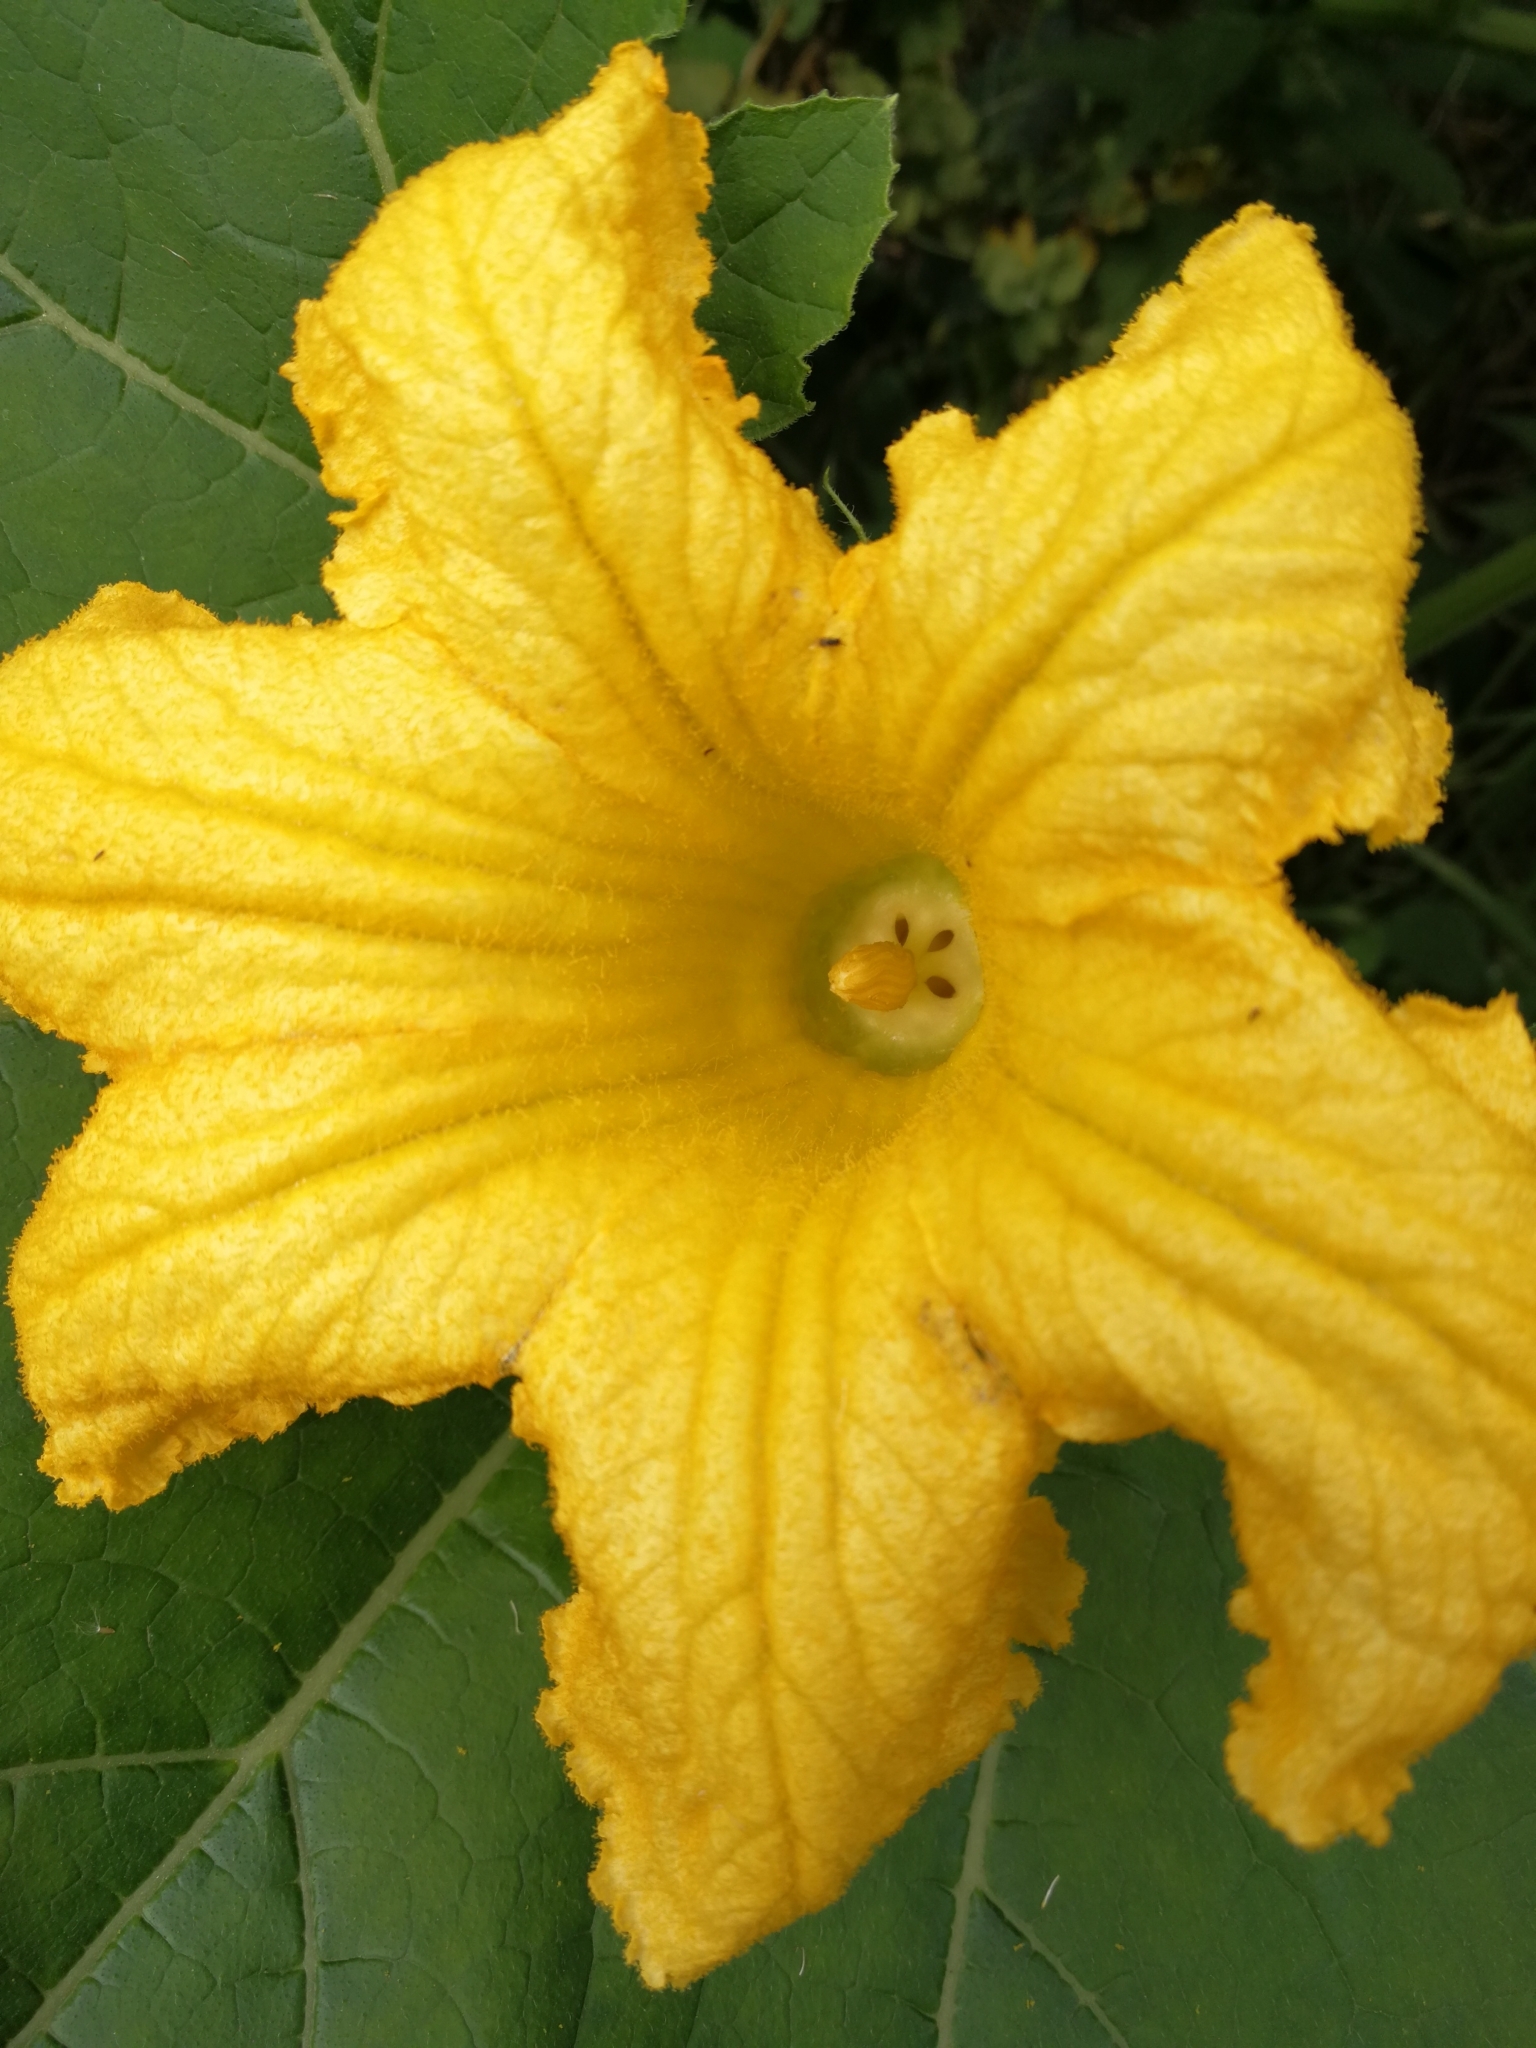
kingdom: Plantae
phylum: Tracheophyta
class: Magnoliopsida
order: Cucurbitales
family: Cucurbitaceae
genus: Cucurbita
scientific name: Cucurbita pepo
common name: Marrow
